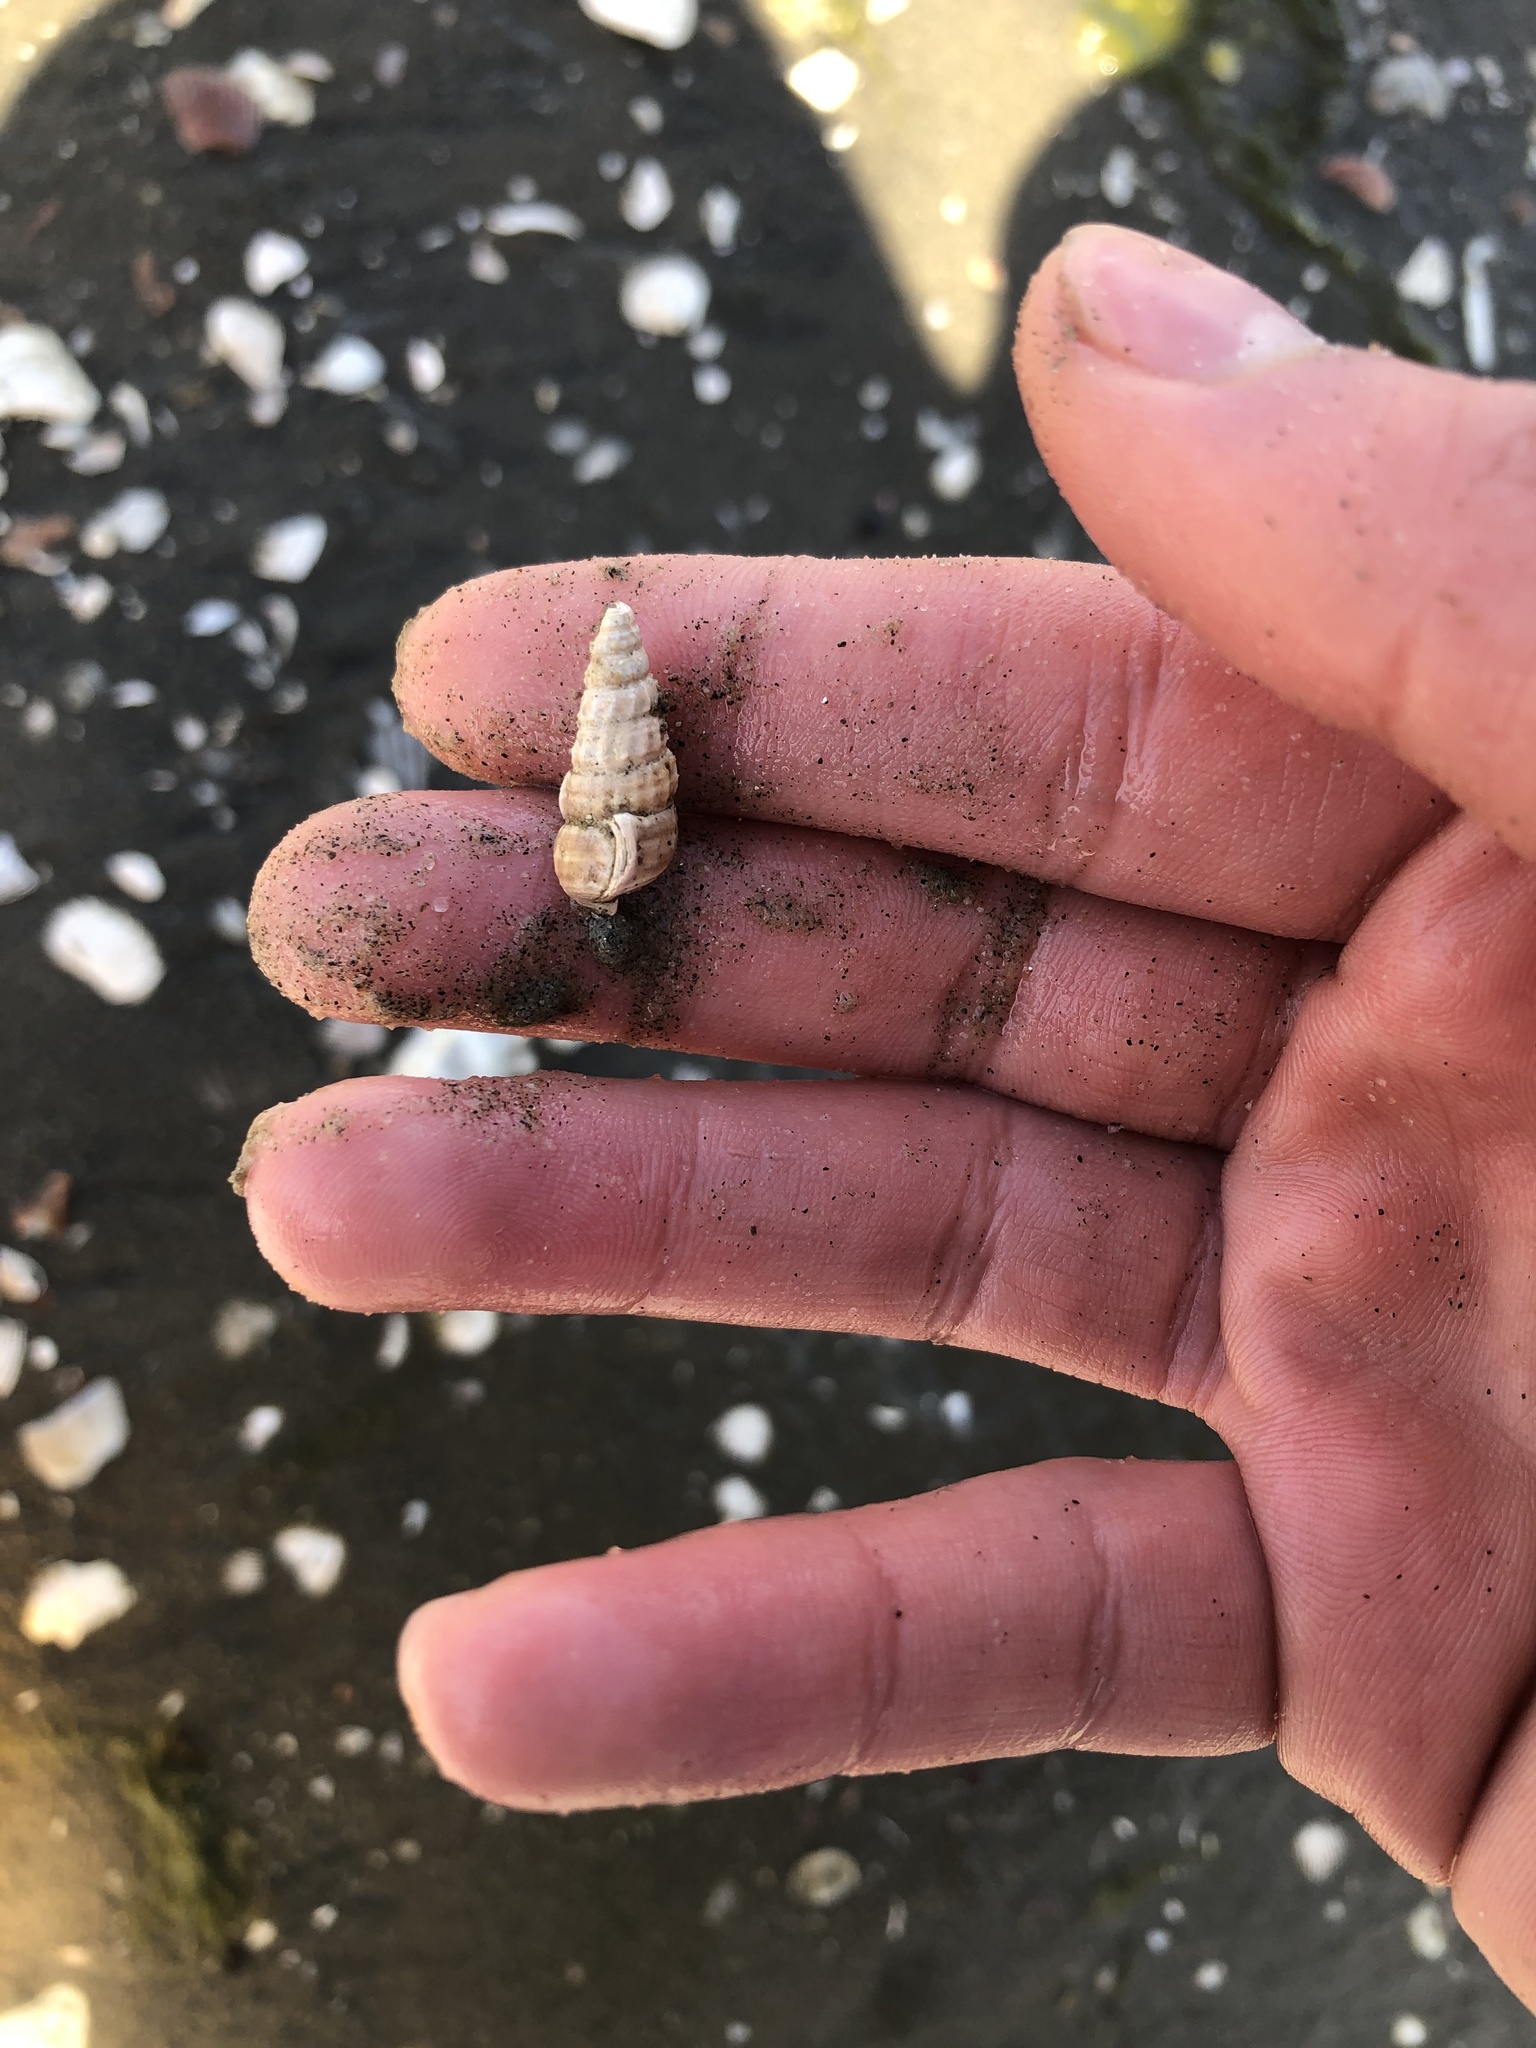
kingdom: Animalia
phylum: Mollusca
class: Gastropoda
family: Potamididae
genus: Cerithideopsis
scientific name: Cerithideopsis californica
